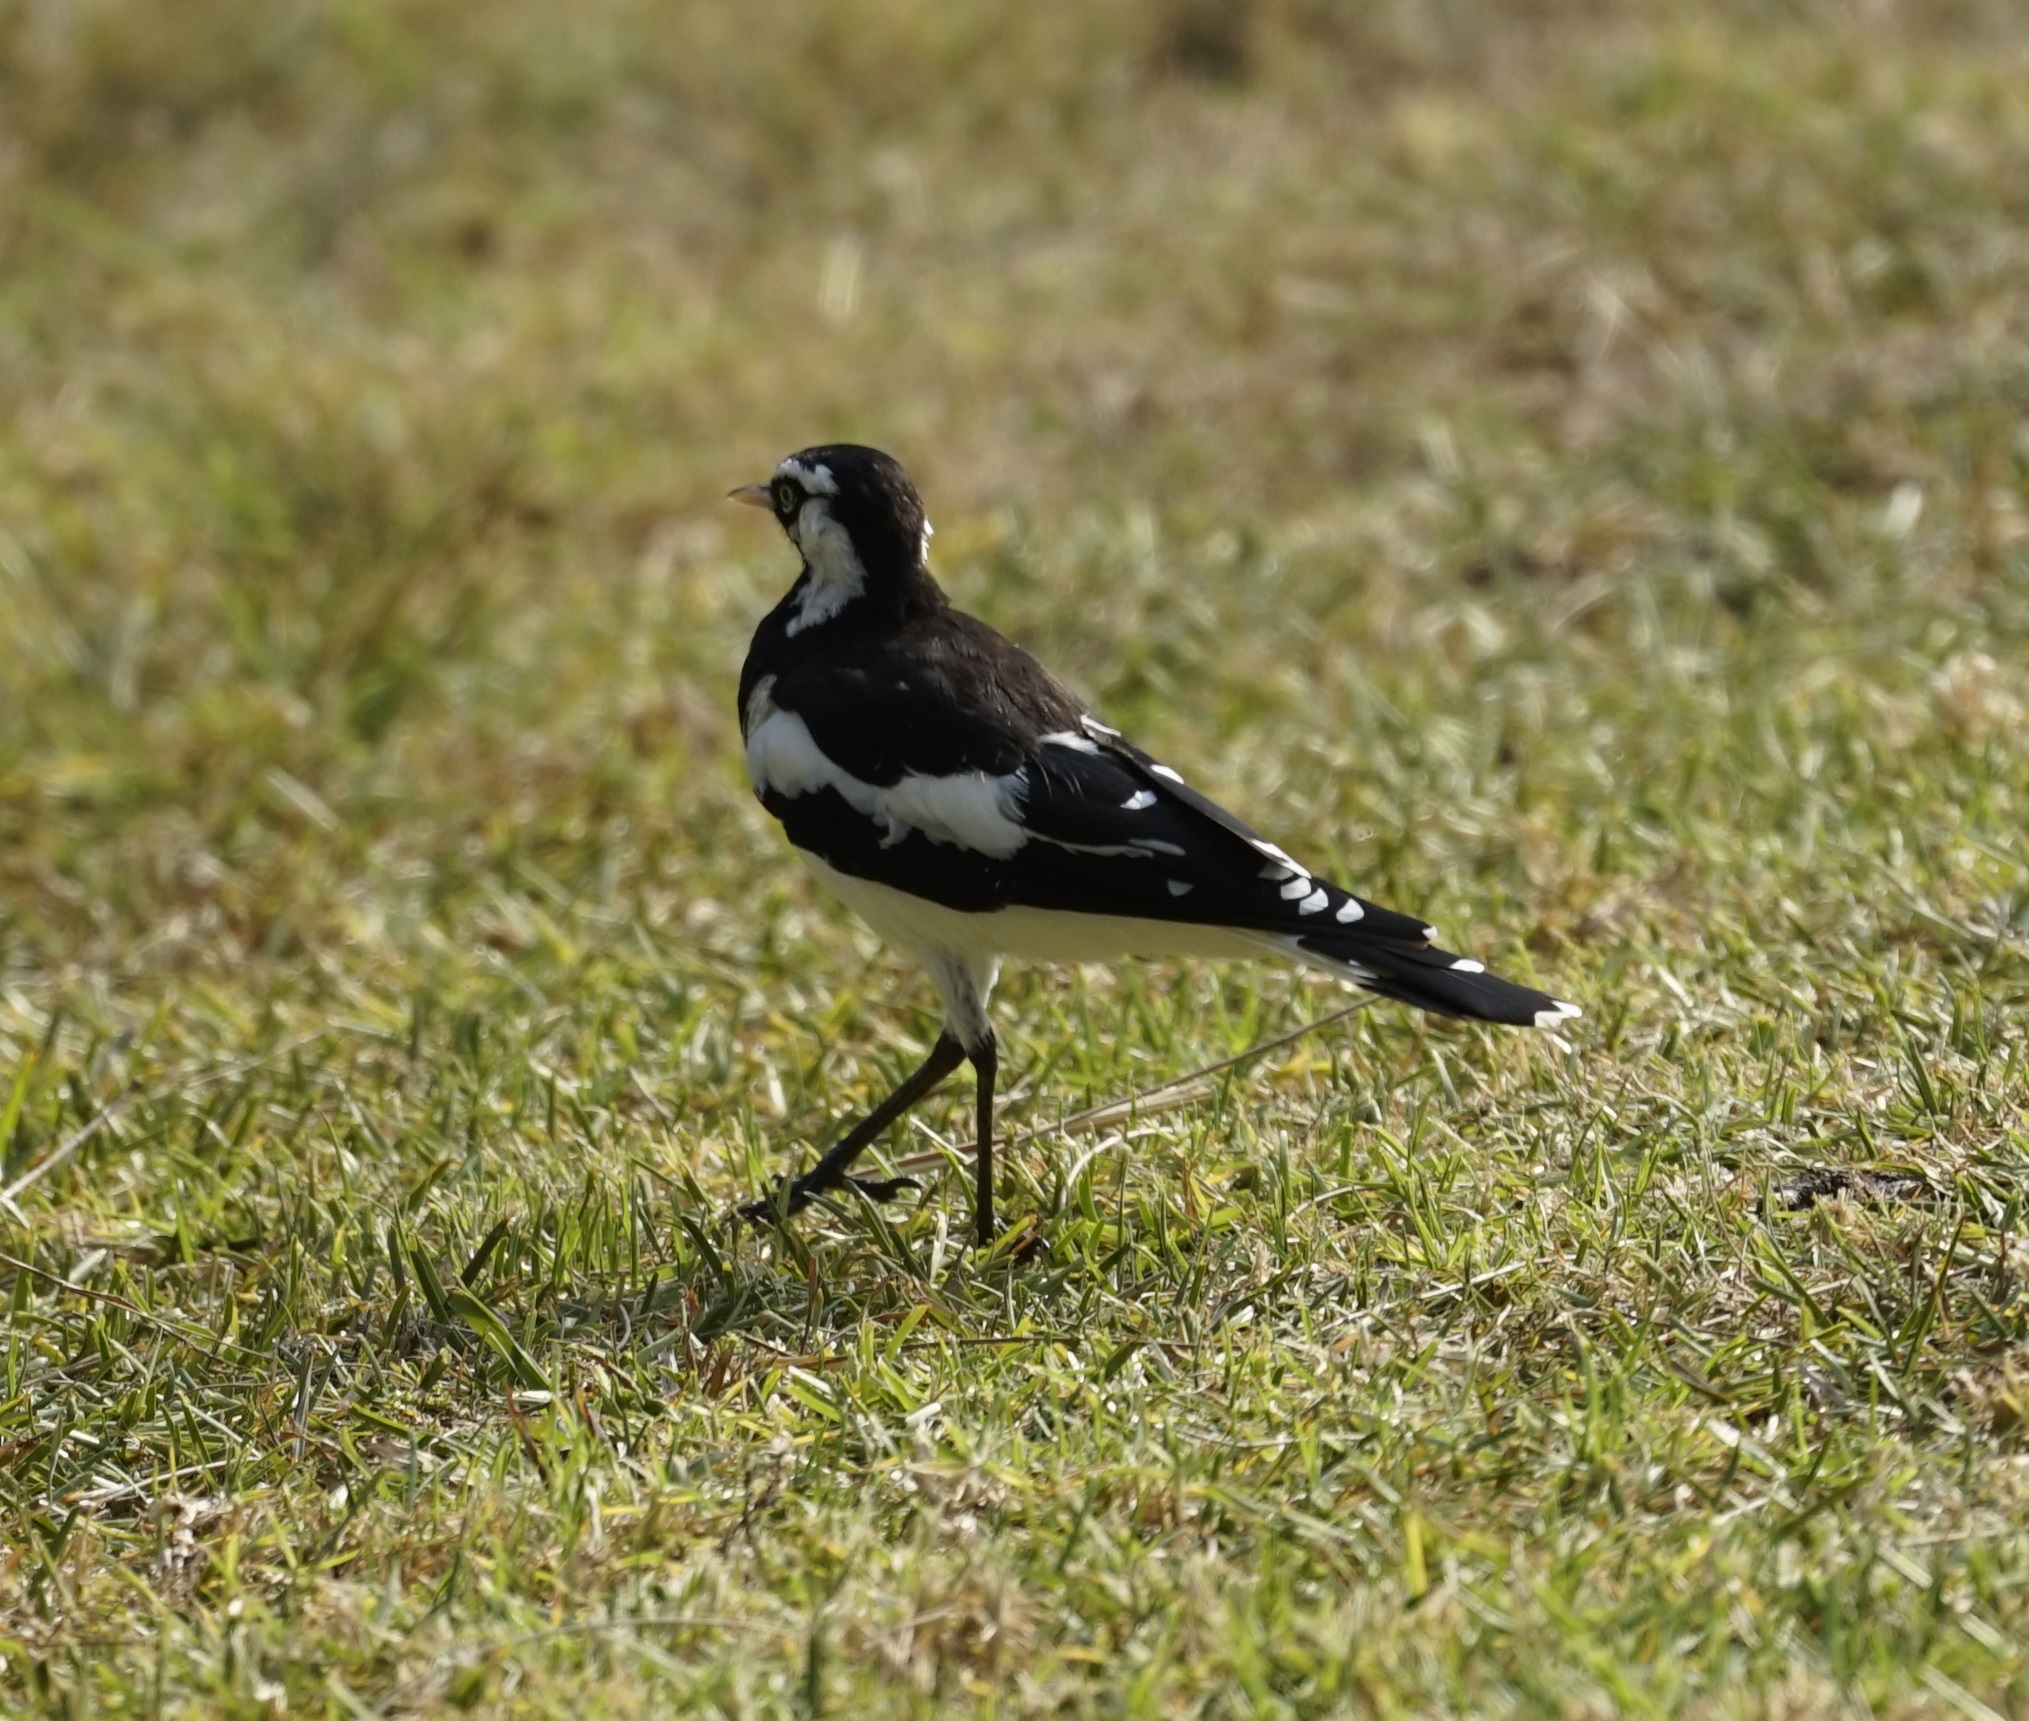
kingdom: Animalia
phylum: Chordata
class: Aves
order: Passeriformes
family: Monarchidae
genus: Grallina
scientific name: Grallina cyanoleuca
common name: Magpie-lark
